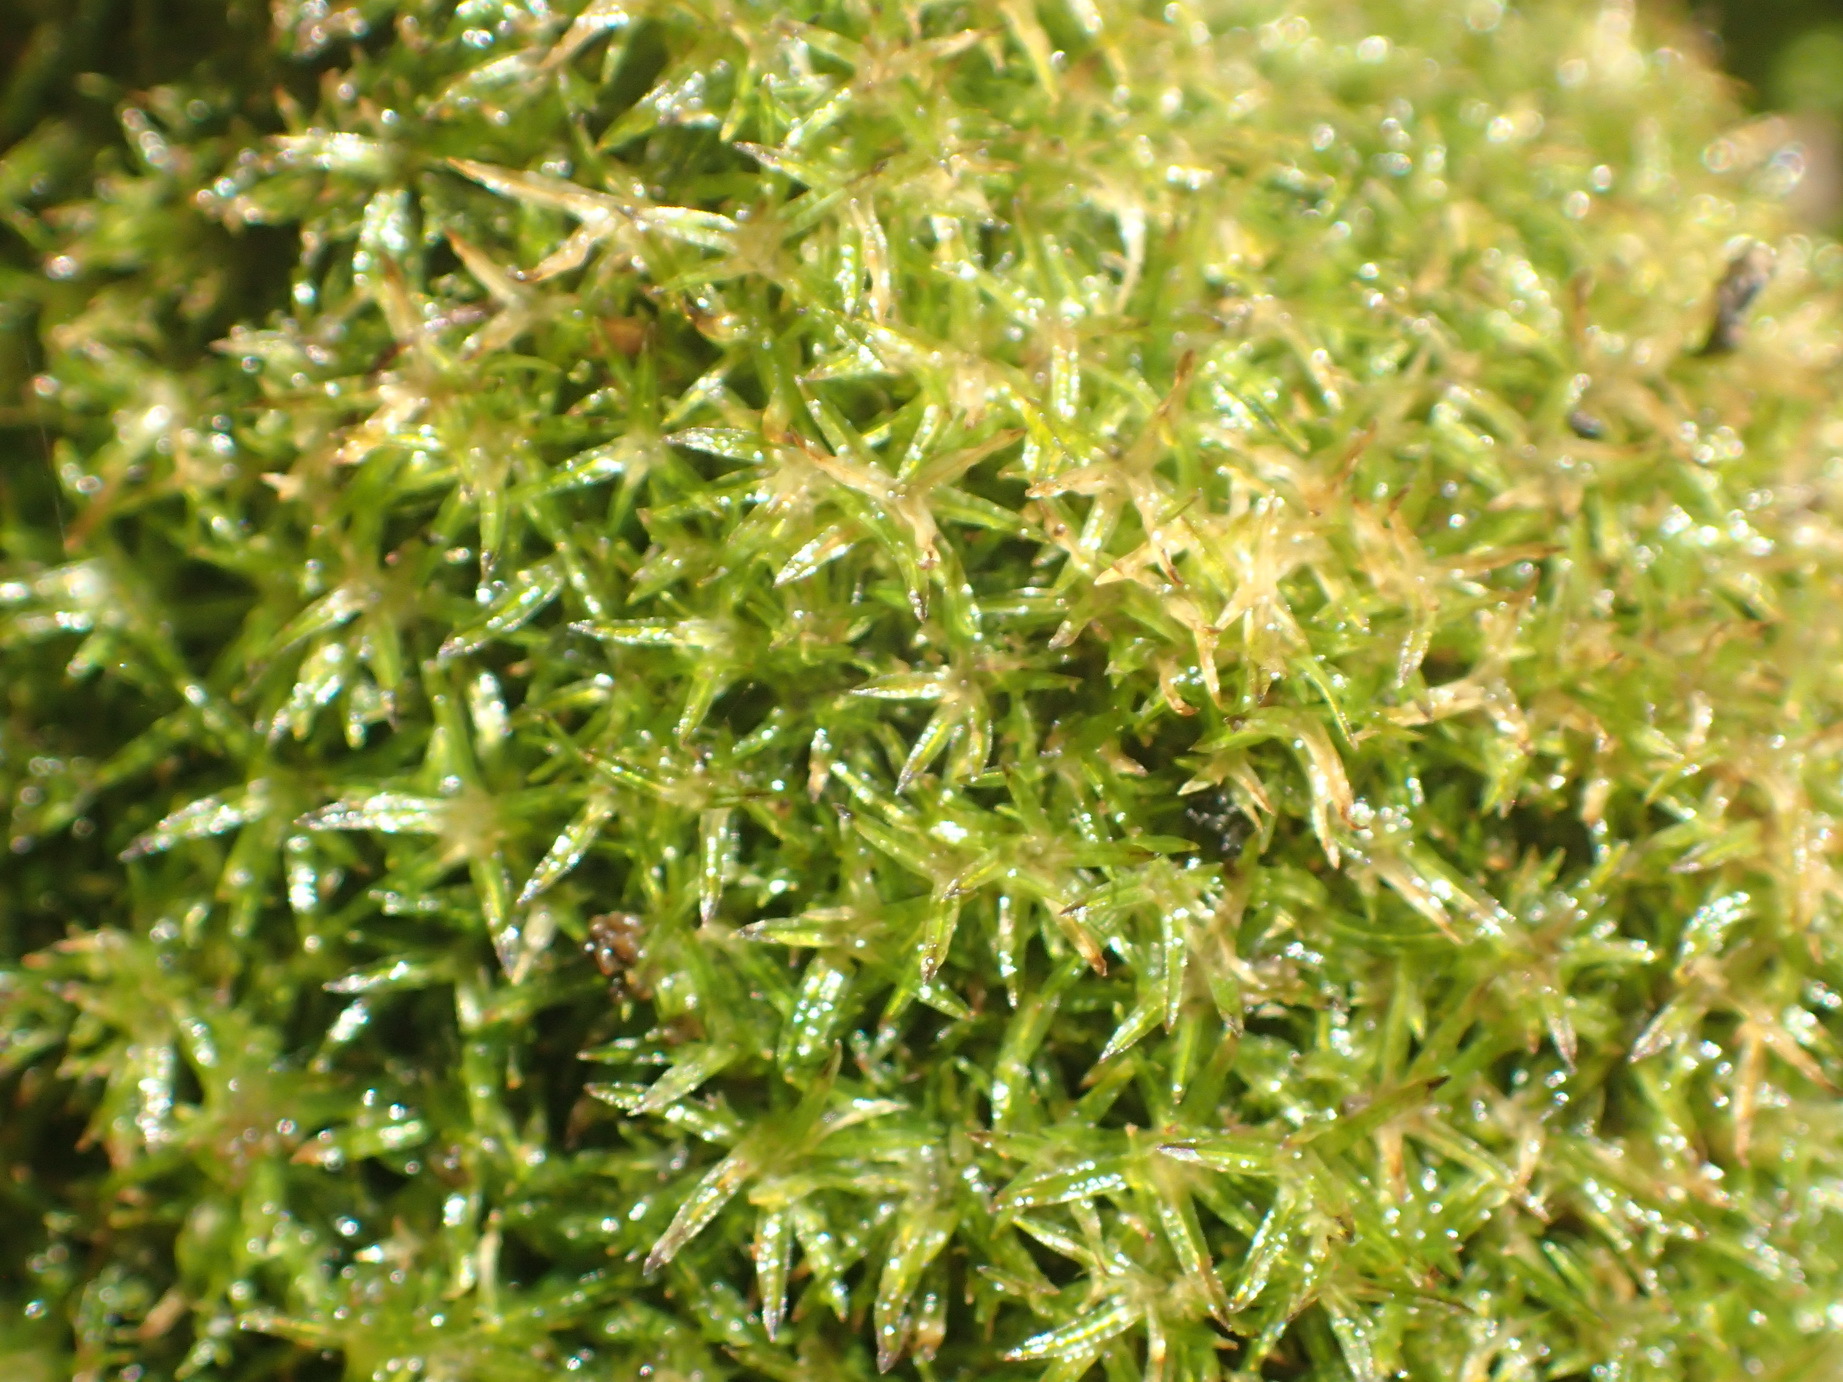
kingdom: Plantae
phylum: Bryophyta
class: Bryopsida
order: Dicranales
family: Calymperaceae
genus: Syrrhopodon
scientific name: Syrrhopodon gaudichaudii
